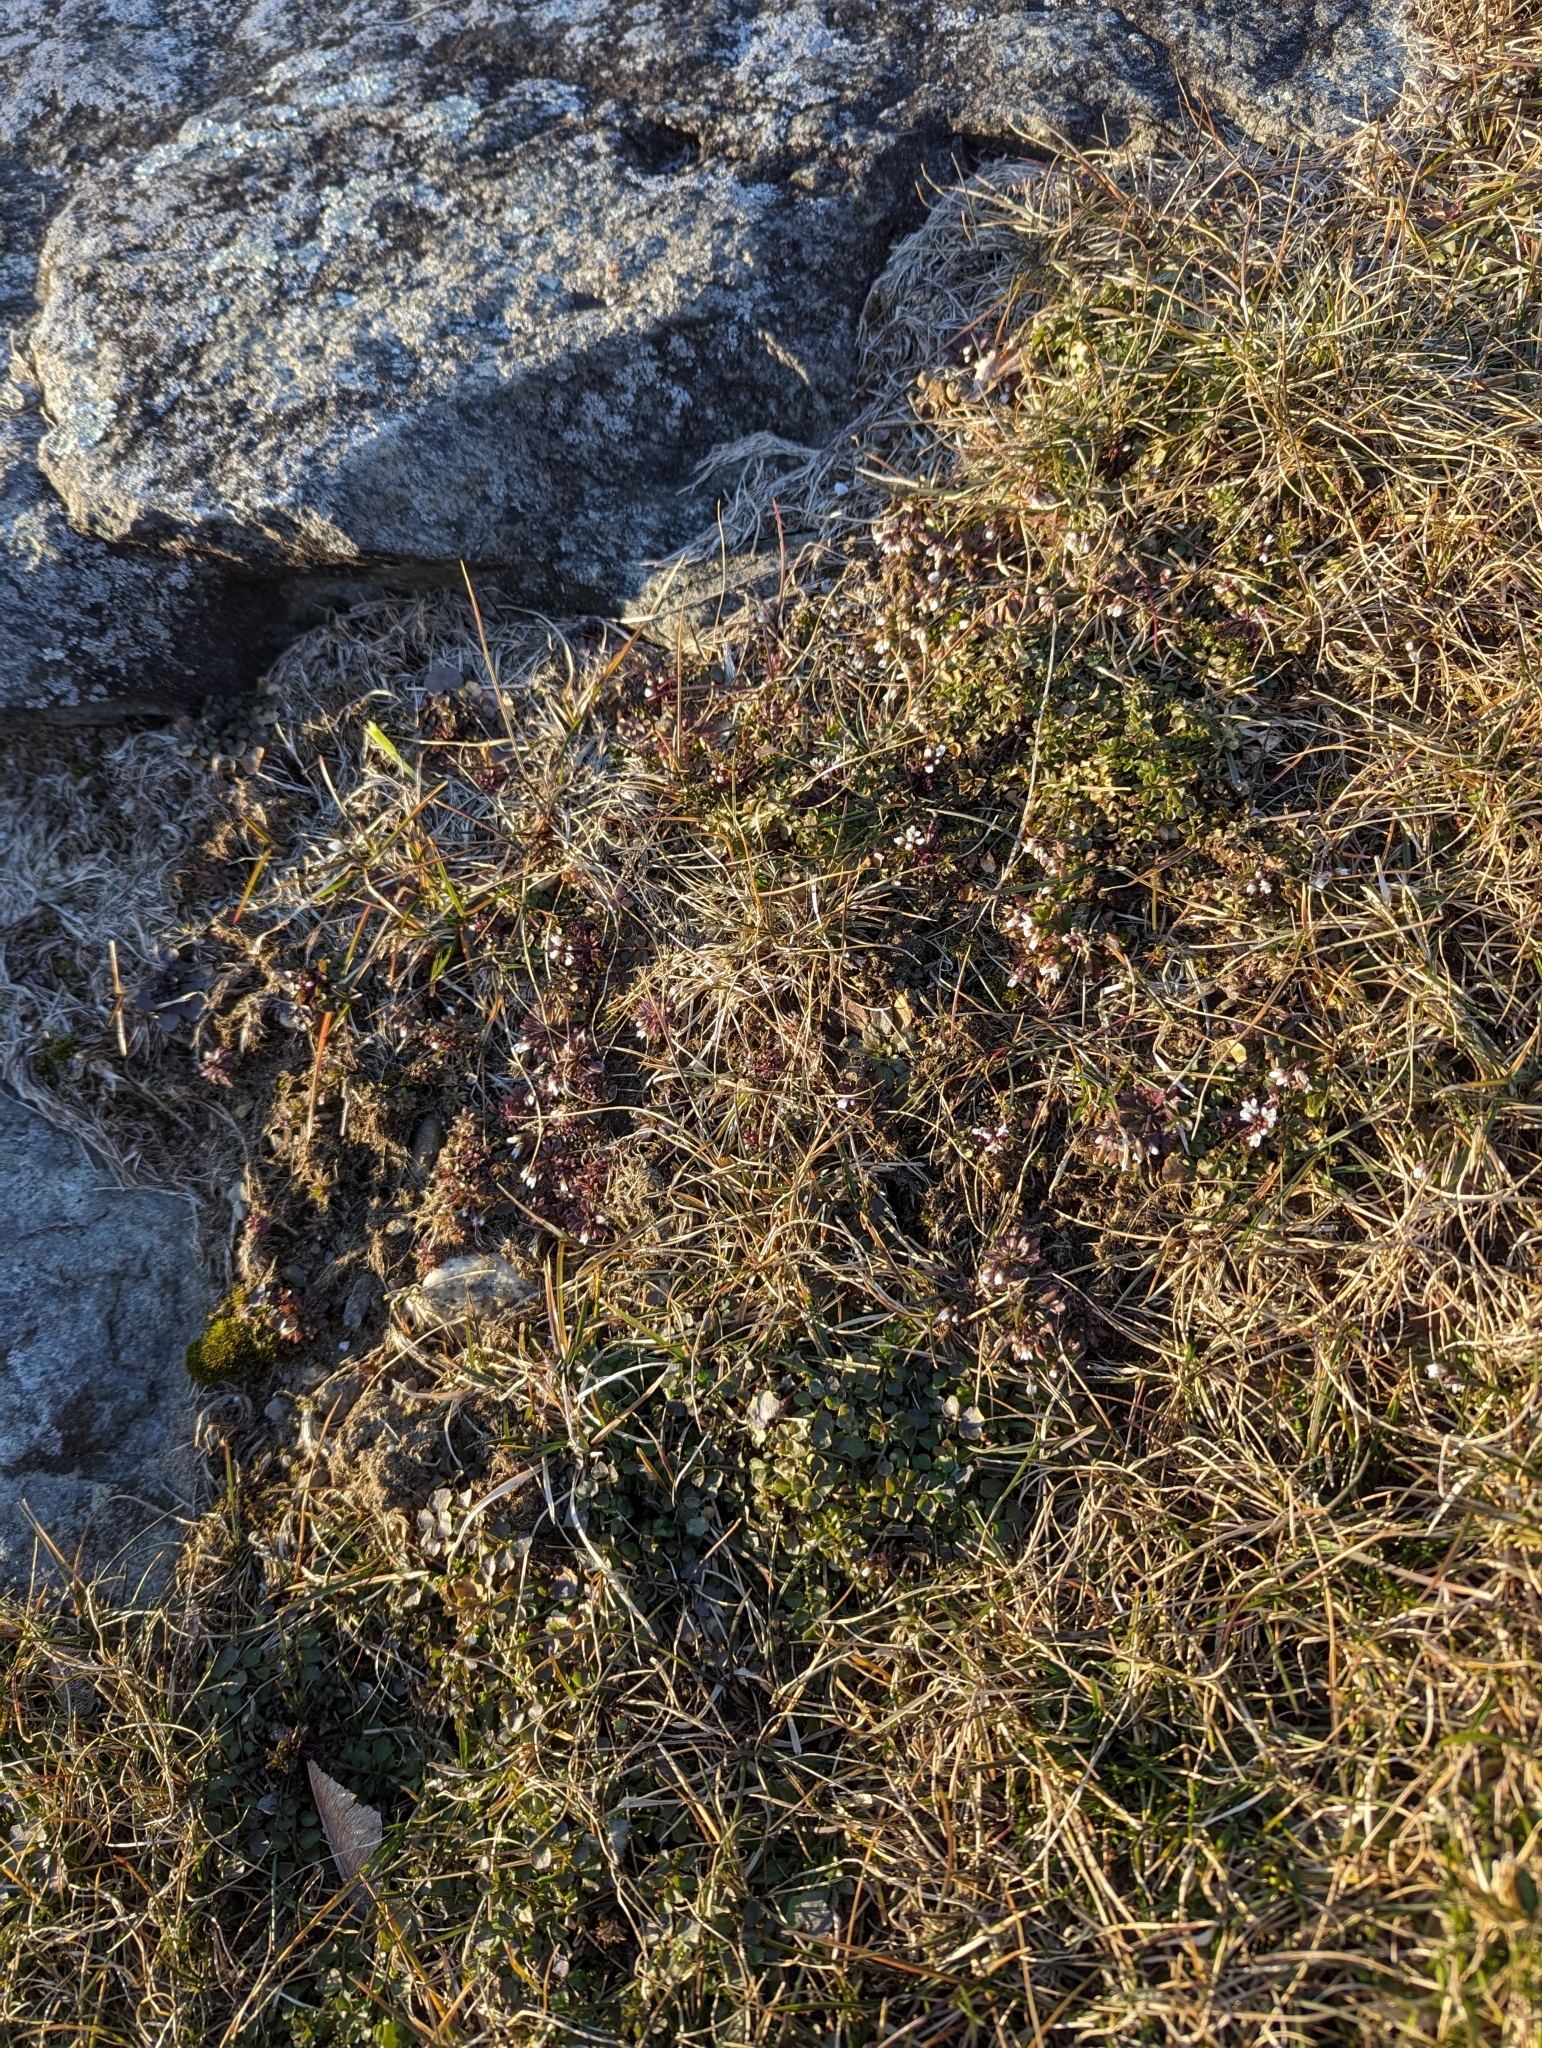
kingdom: Plantae
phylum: Tracheophyta
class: Magnoliopsida
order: Brassicales
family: Brassicaceae
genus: Cardamine
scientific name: Cardamine hirsuta
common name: Hairy bittercress
